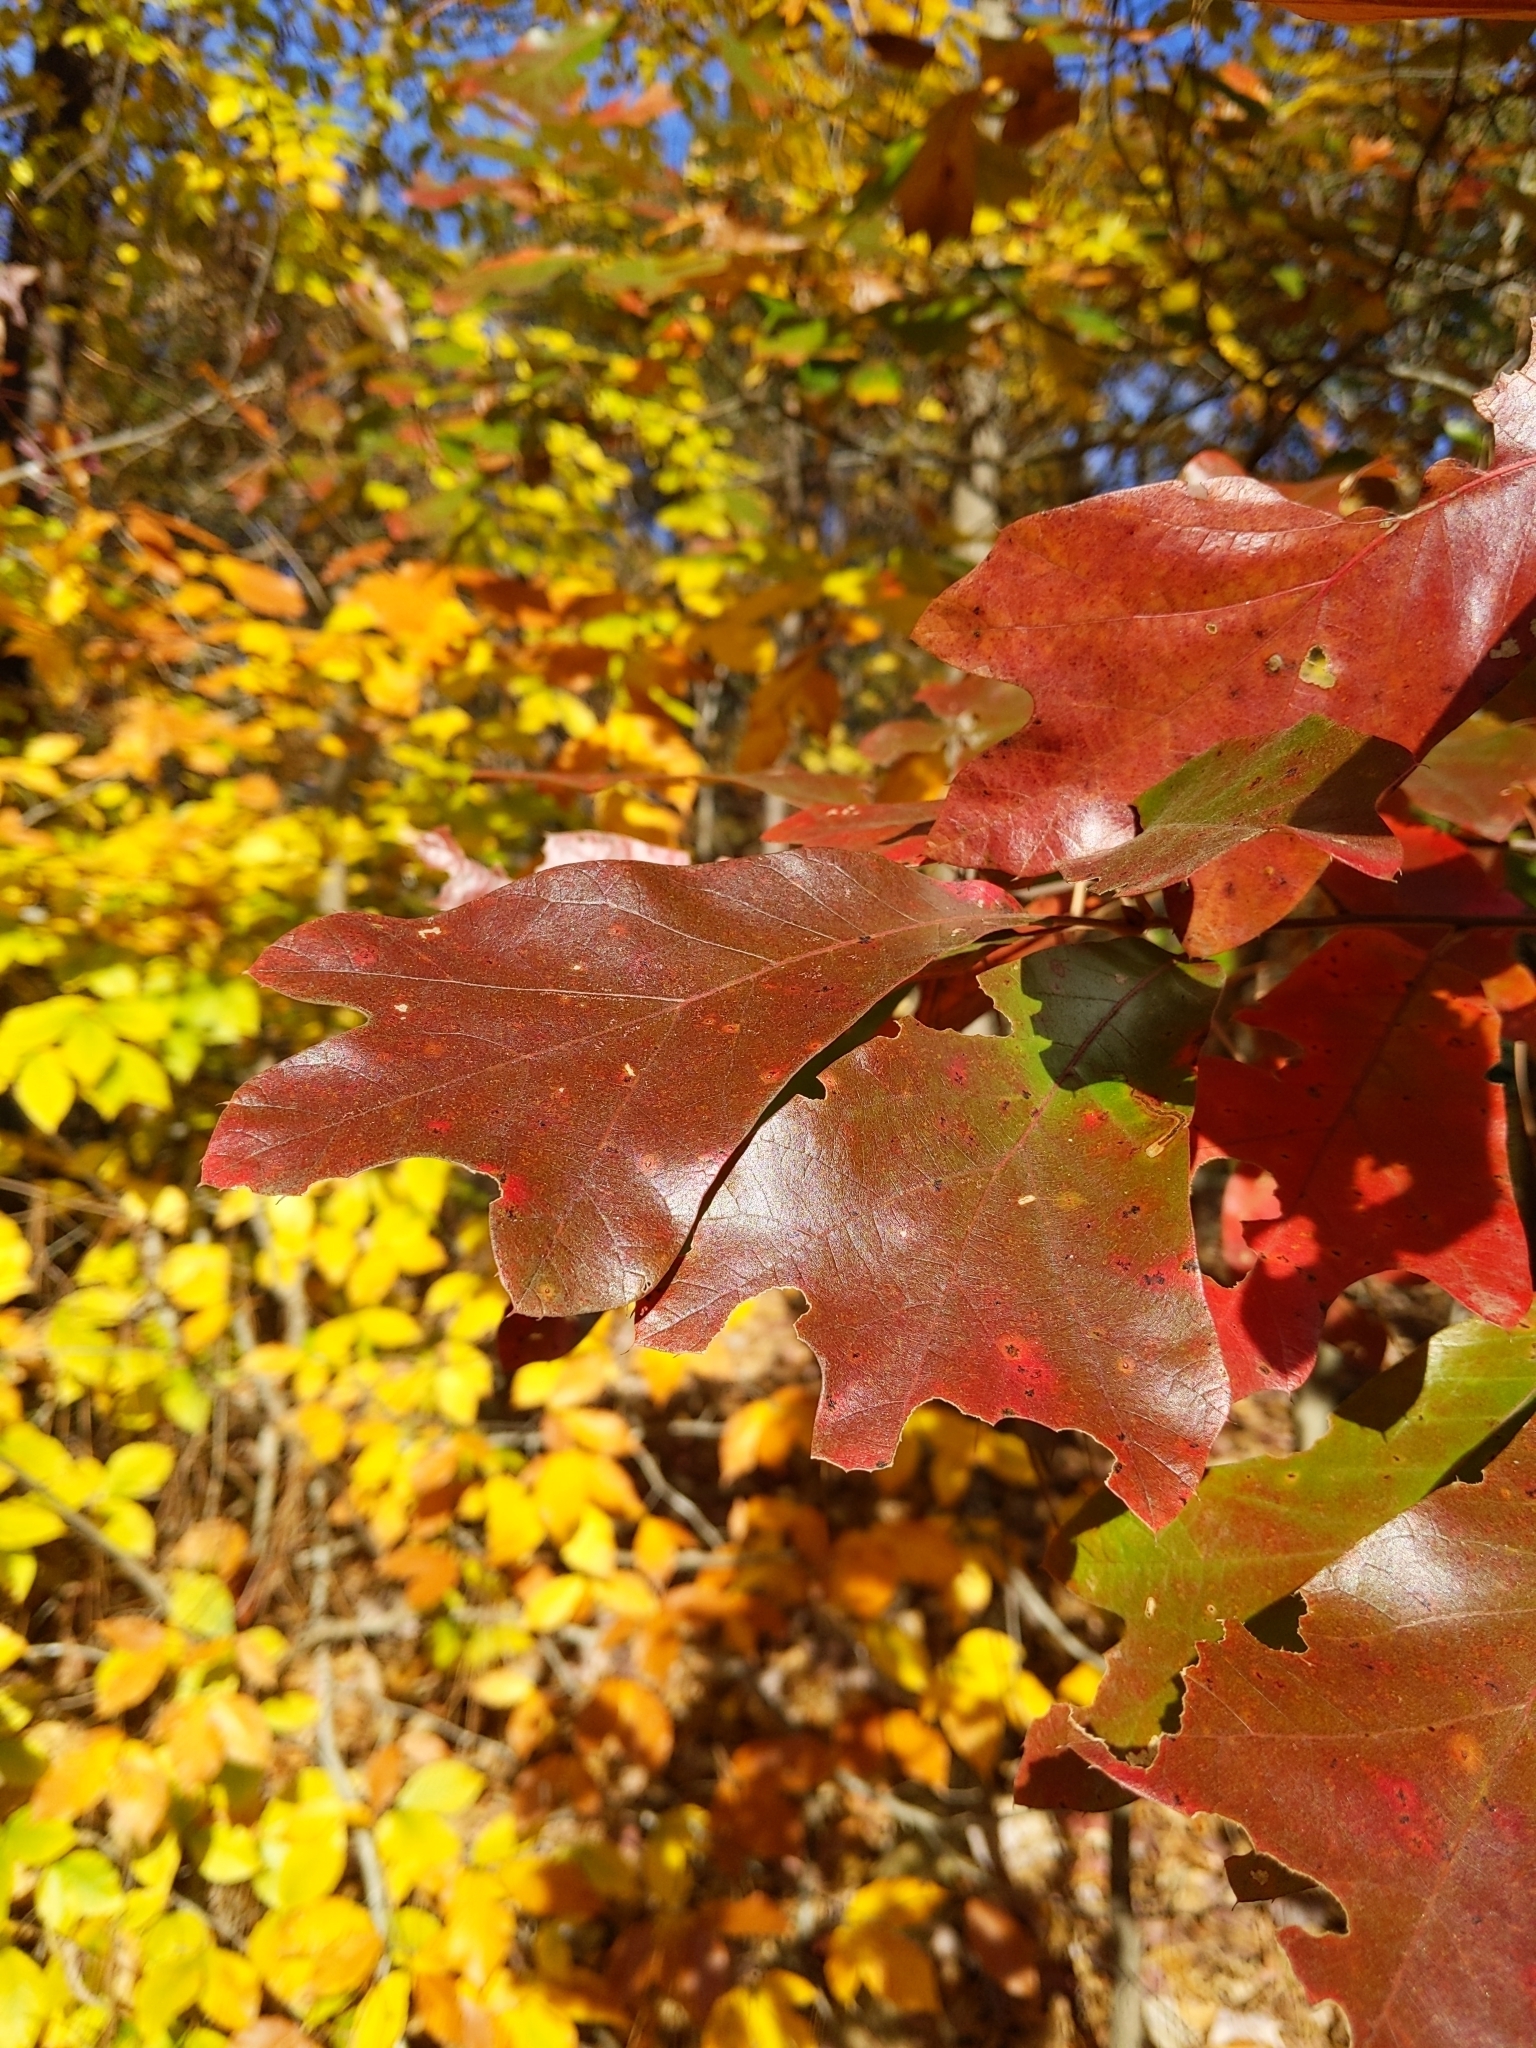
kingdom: Plantae
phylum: Tracheophyta
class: Magnoliopsida
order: Fagales
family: Fagaceae
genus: Quercus
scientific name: Quercus falcata
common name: Southern red oak
